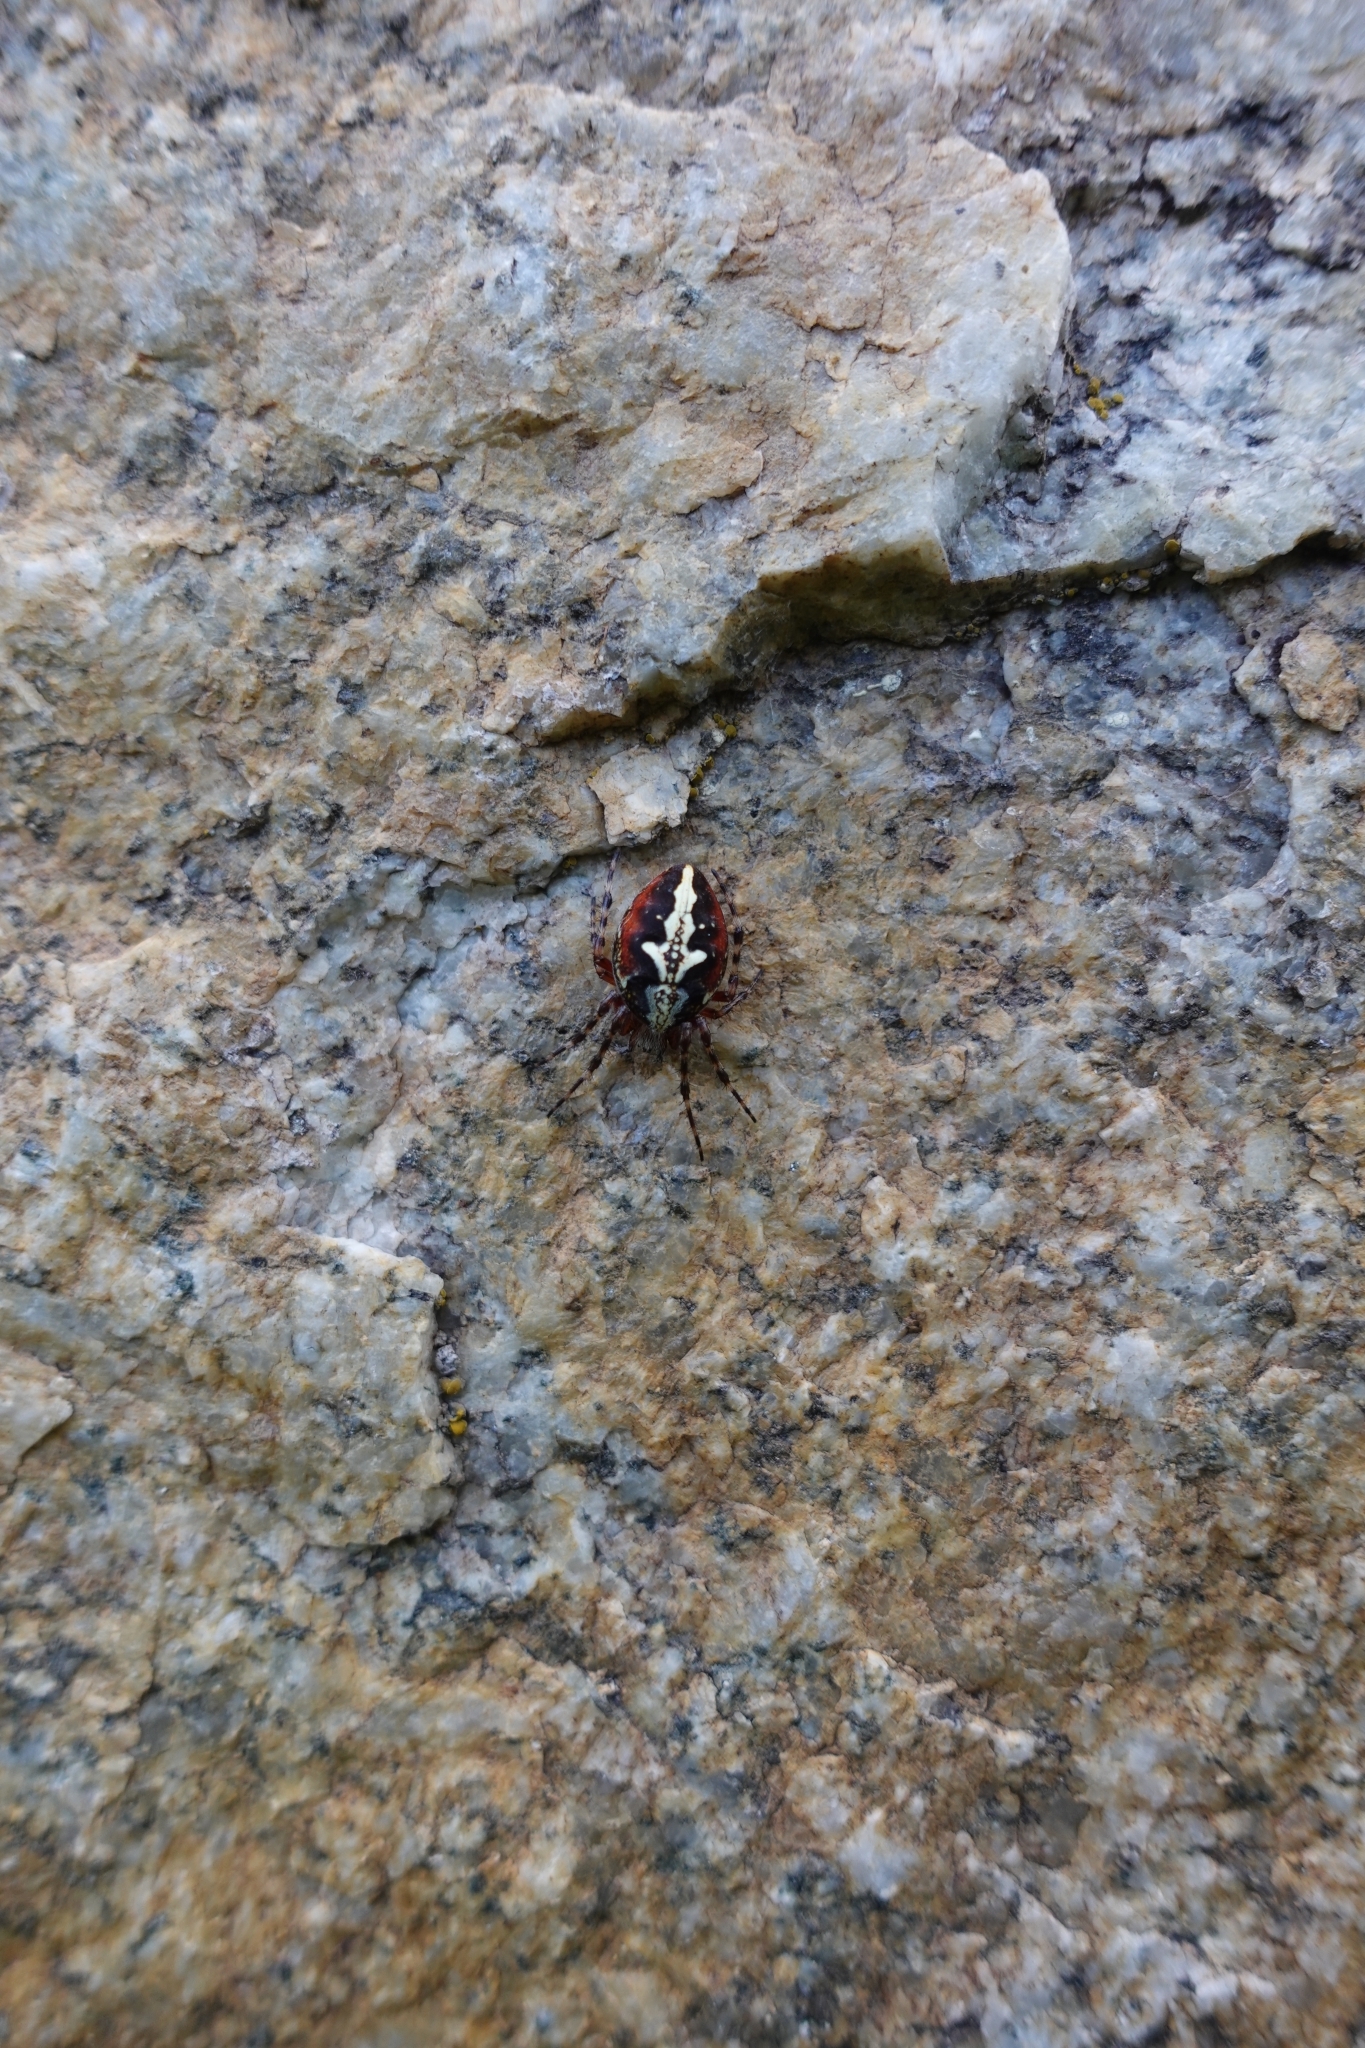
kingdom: Animalia
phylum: Arthropoda
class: Arachnida
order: Araneae
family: Araneidae
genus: Aculepeira
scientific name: Aculepeira ceropegia
